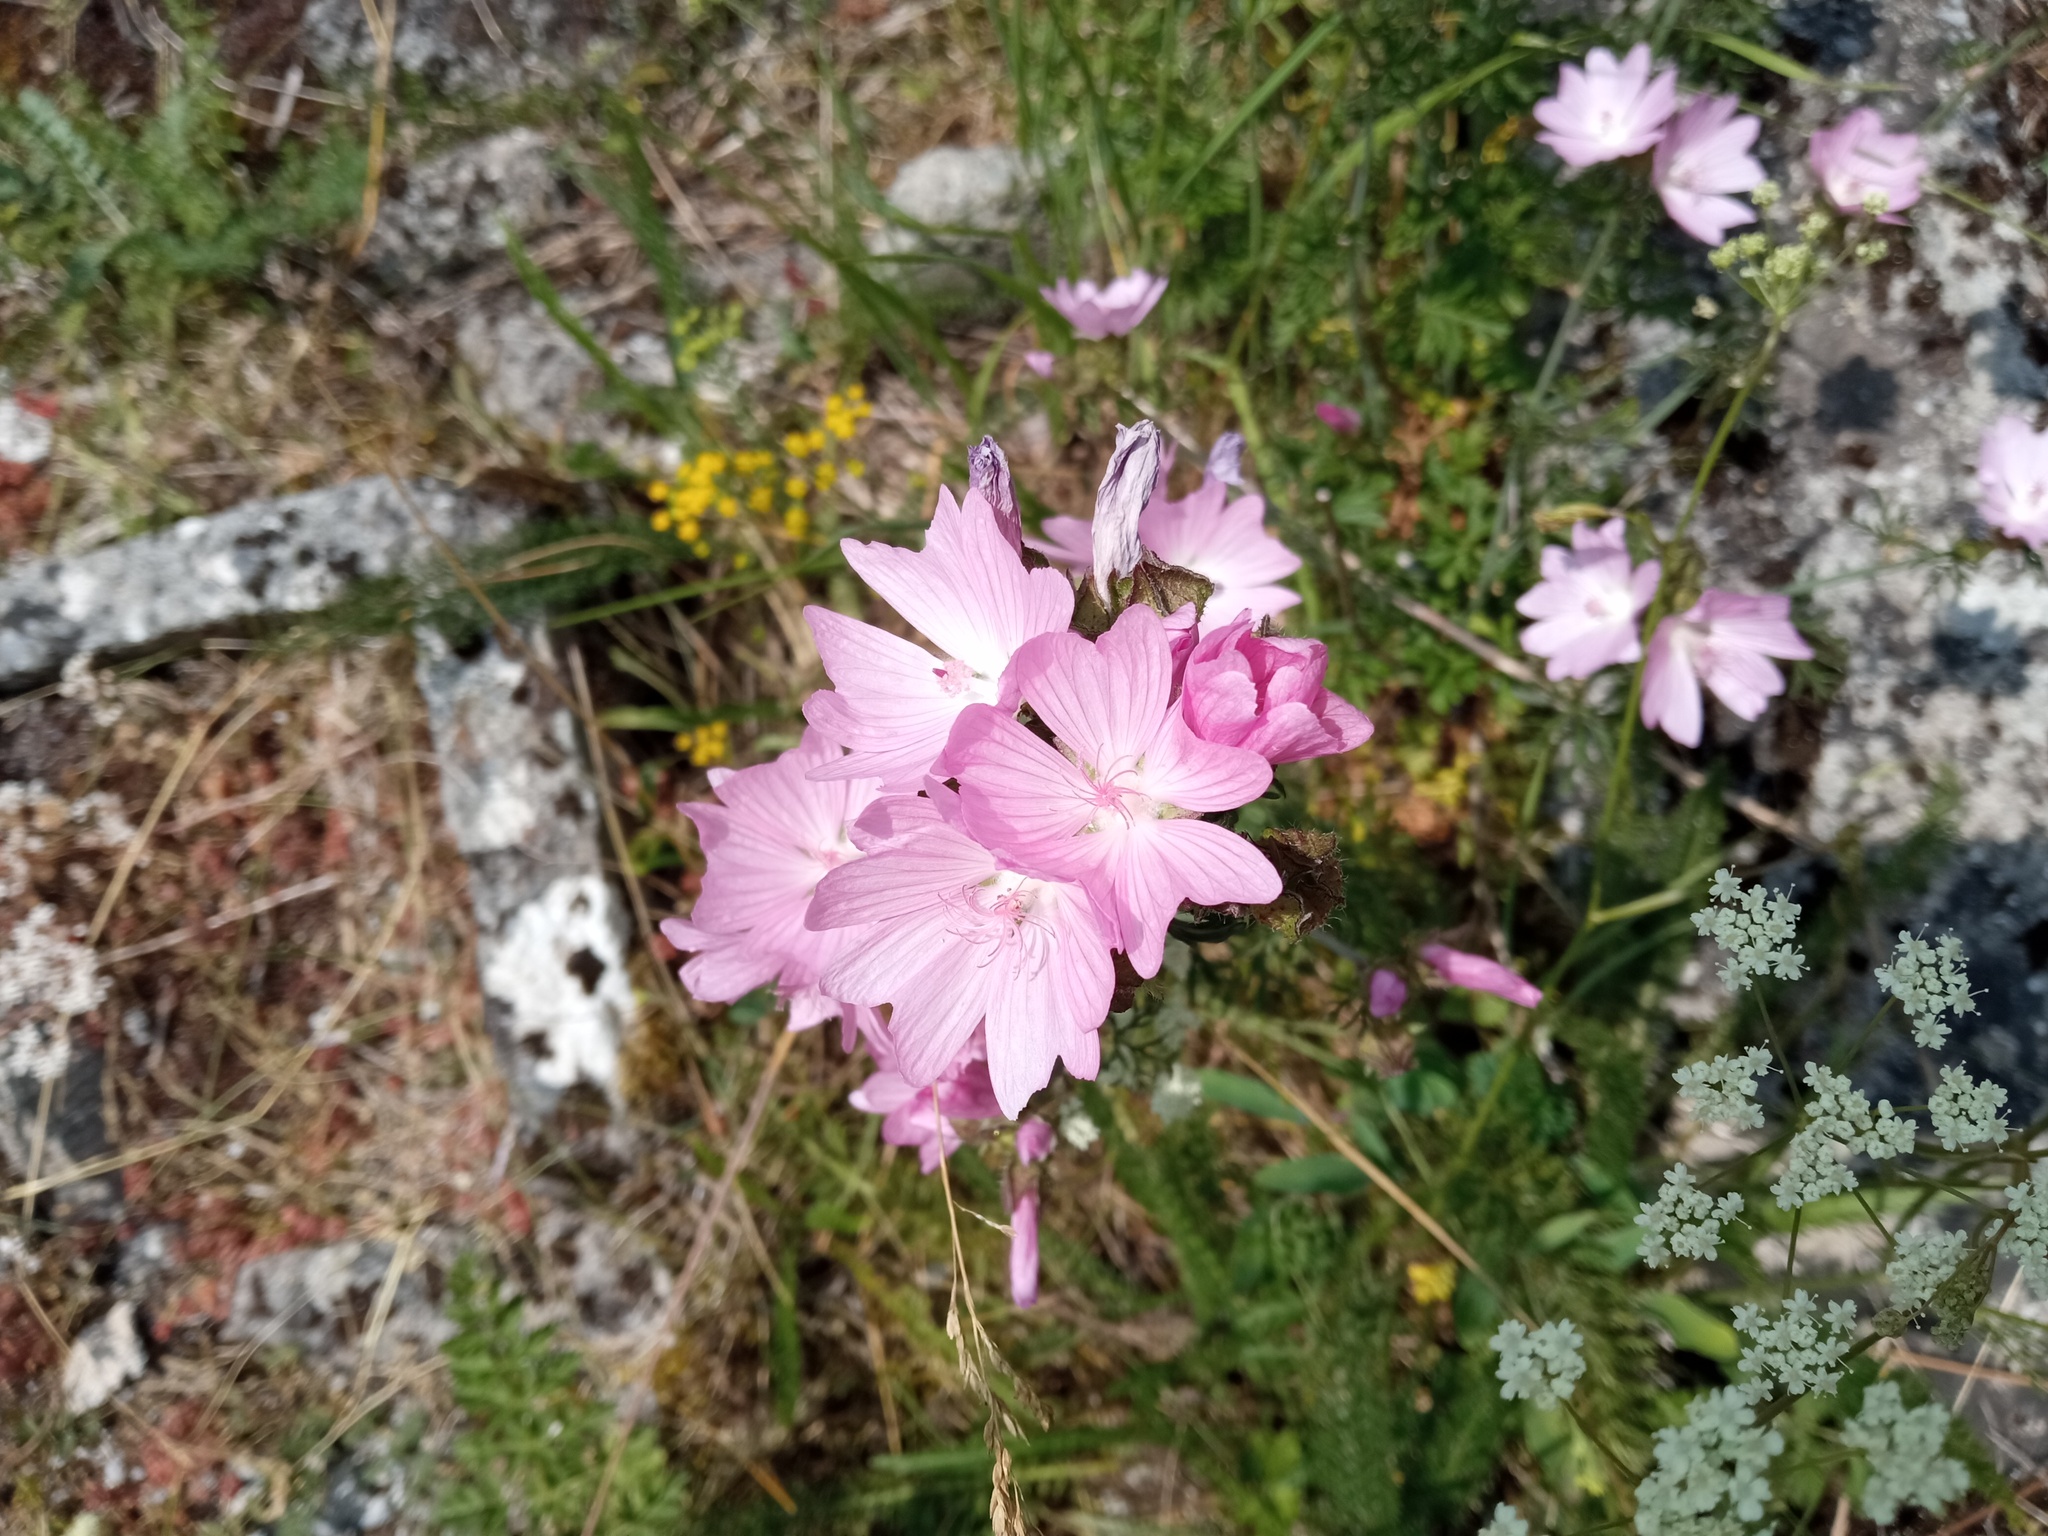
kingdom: Plantae
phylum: Tracheophyta
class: Magnoliopsida
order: Malvales
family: Malvaceae
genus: Malva
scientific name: Malva moschata
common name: Musk mallow
